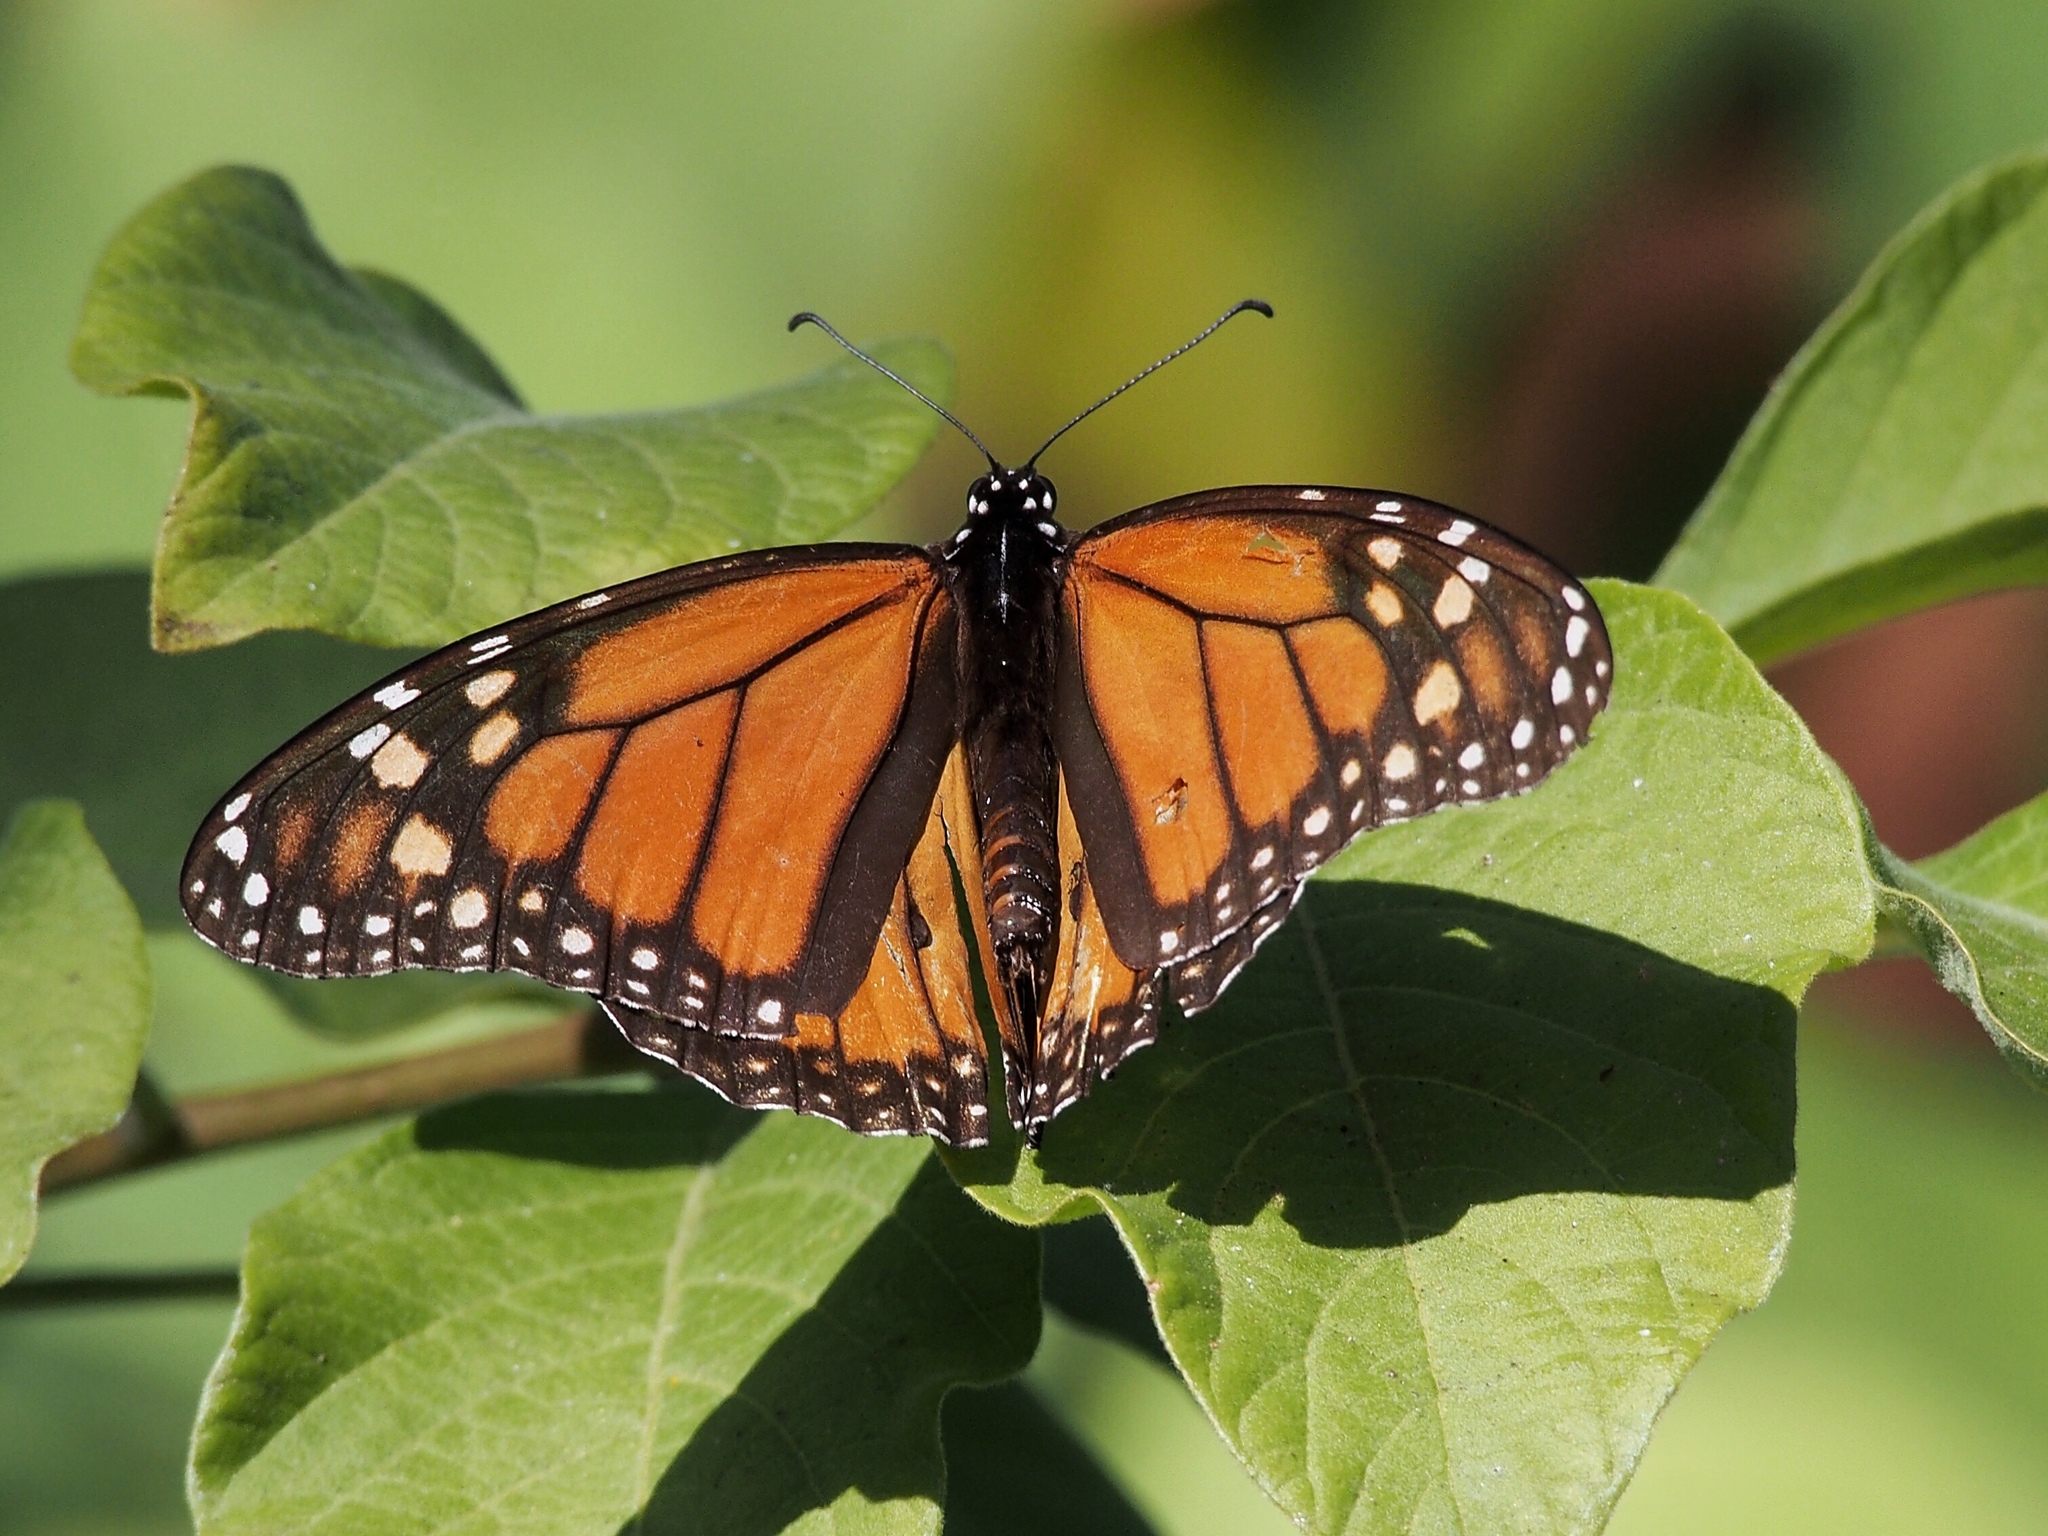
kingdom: Animalia
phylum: Arthropoda
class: Insecta
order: Lepidoptera
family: Nymphalidae
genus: Danaus
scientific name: Danaus plexippus
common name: Monarch
